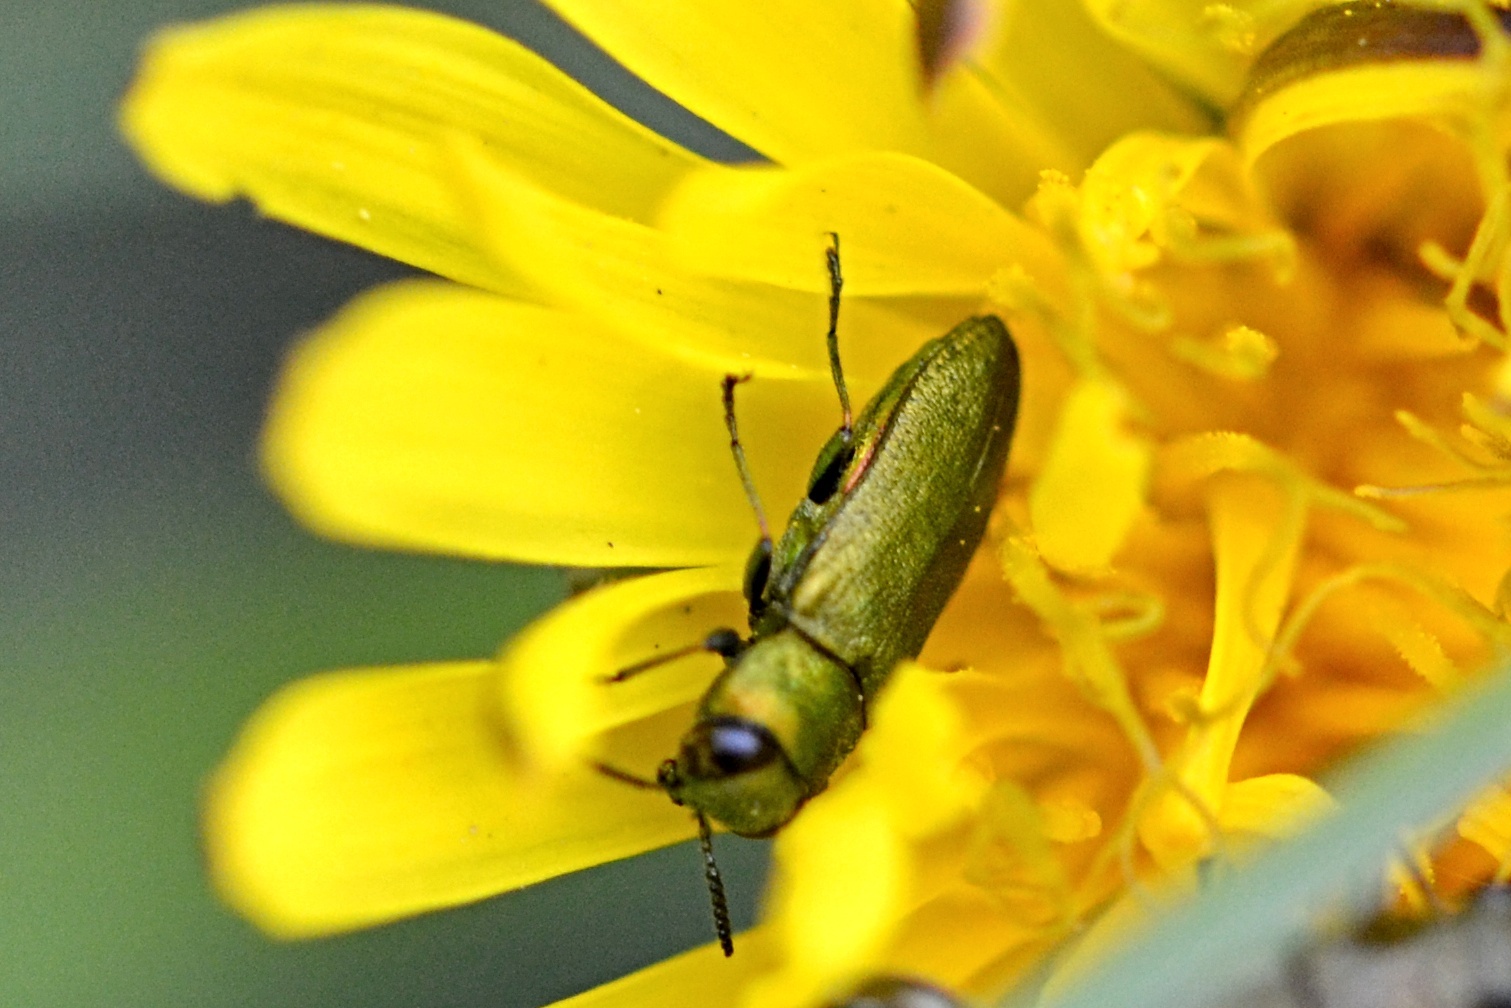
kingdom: Animalia
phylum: Arthropoda
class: Insecta
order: Coleoptera
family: Buprestidae
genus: Anthaxia
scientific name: Anthaxia nitidula
